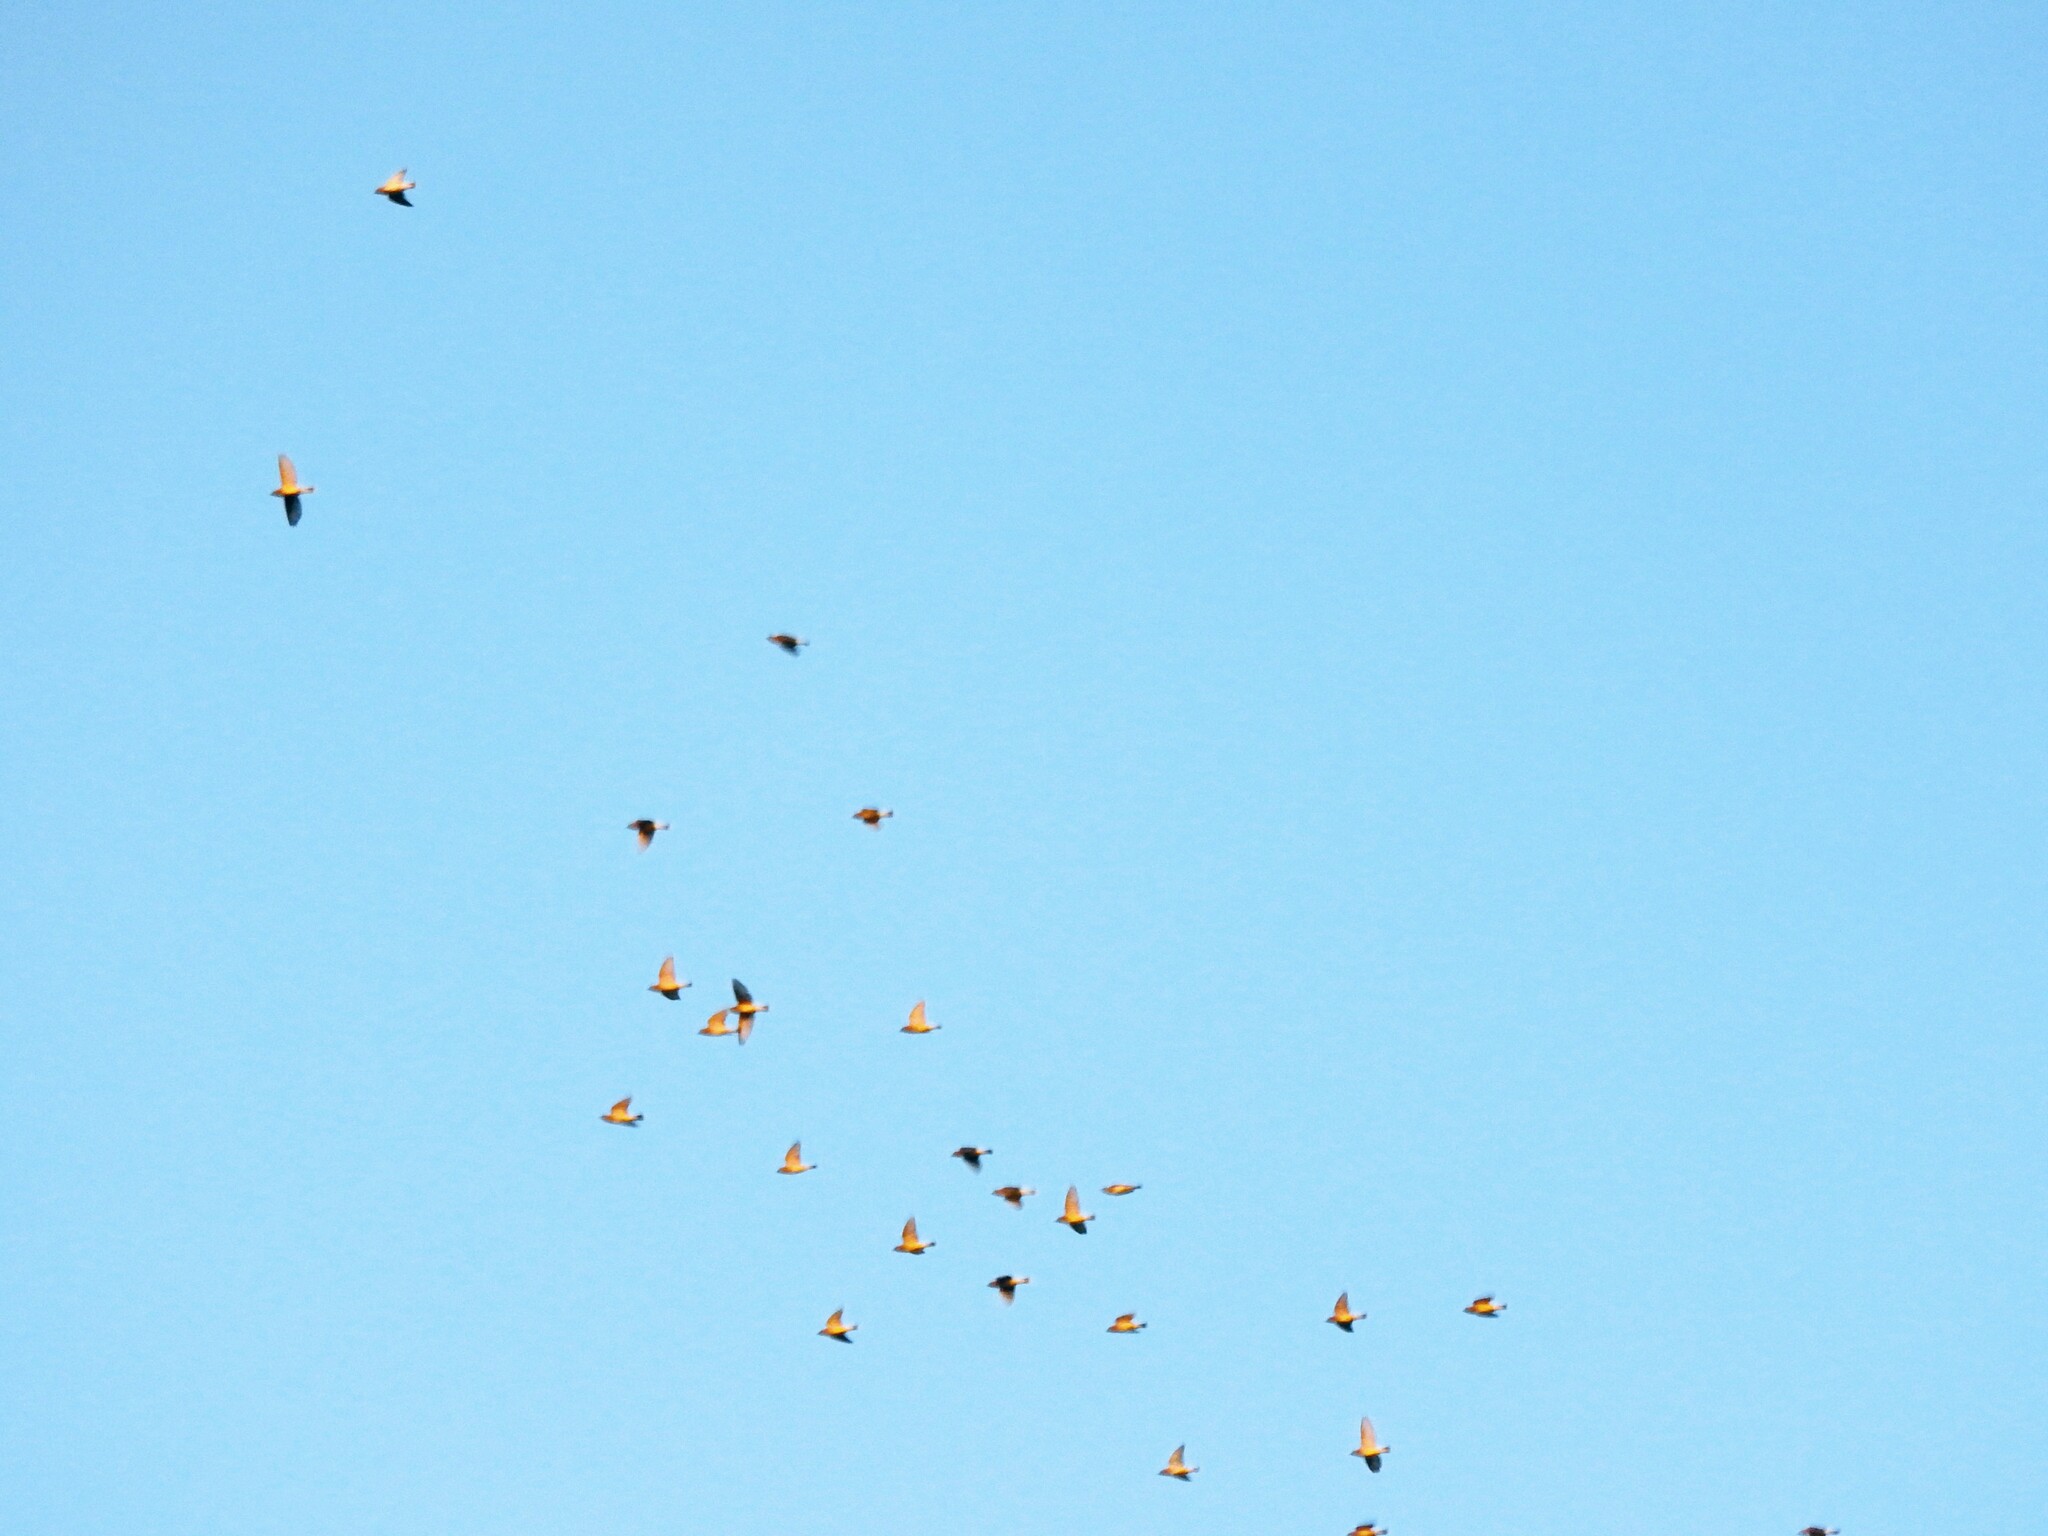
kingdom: Animalia
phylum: Chordata
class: Aves
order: Passeriformes
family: Bombycillidae
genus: Bombycilla
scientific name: Bombycilla cedrorum
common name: Cedar waxwing
